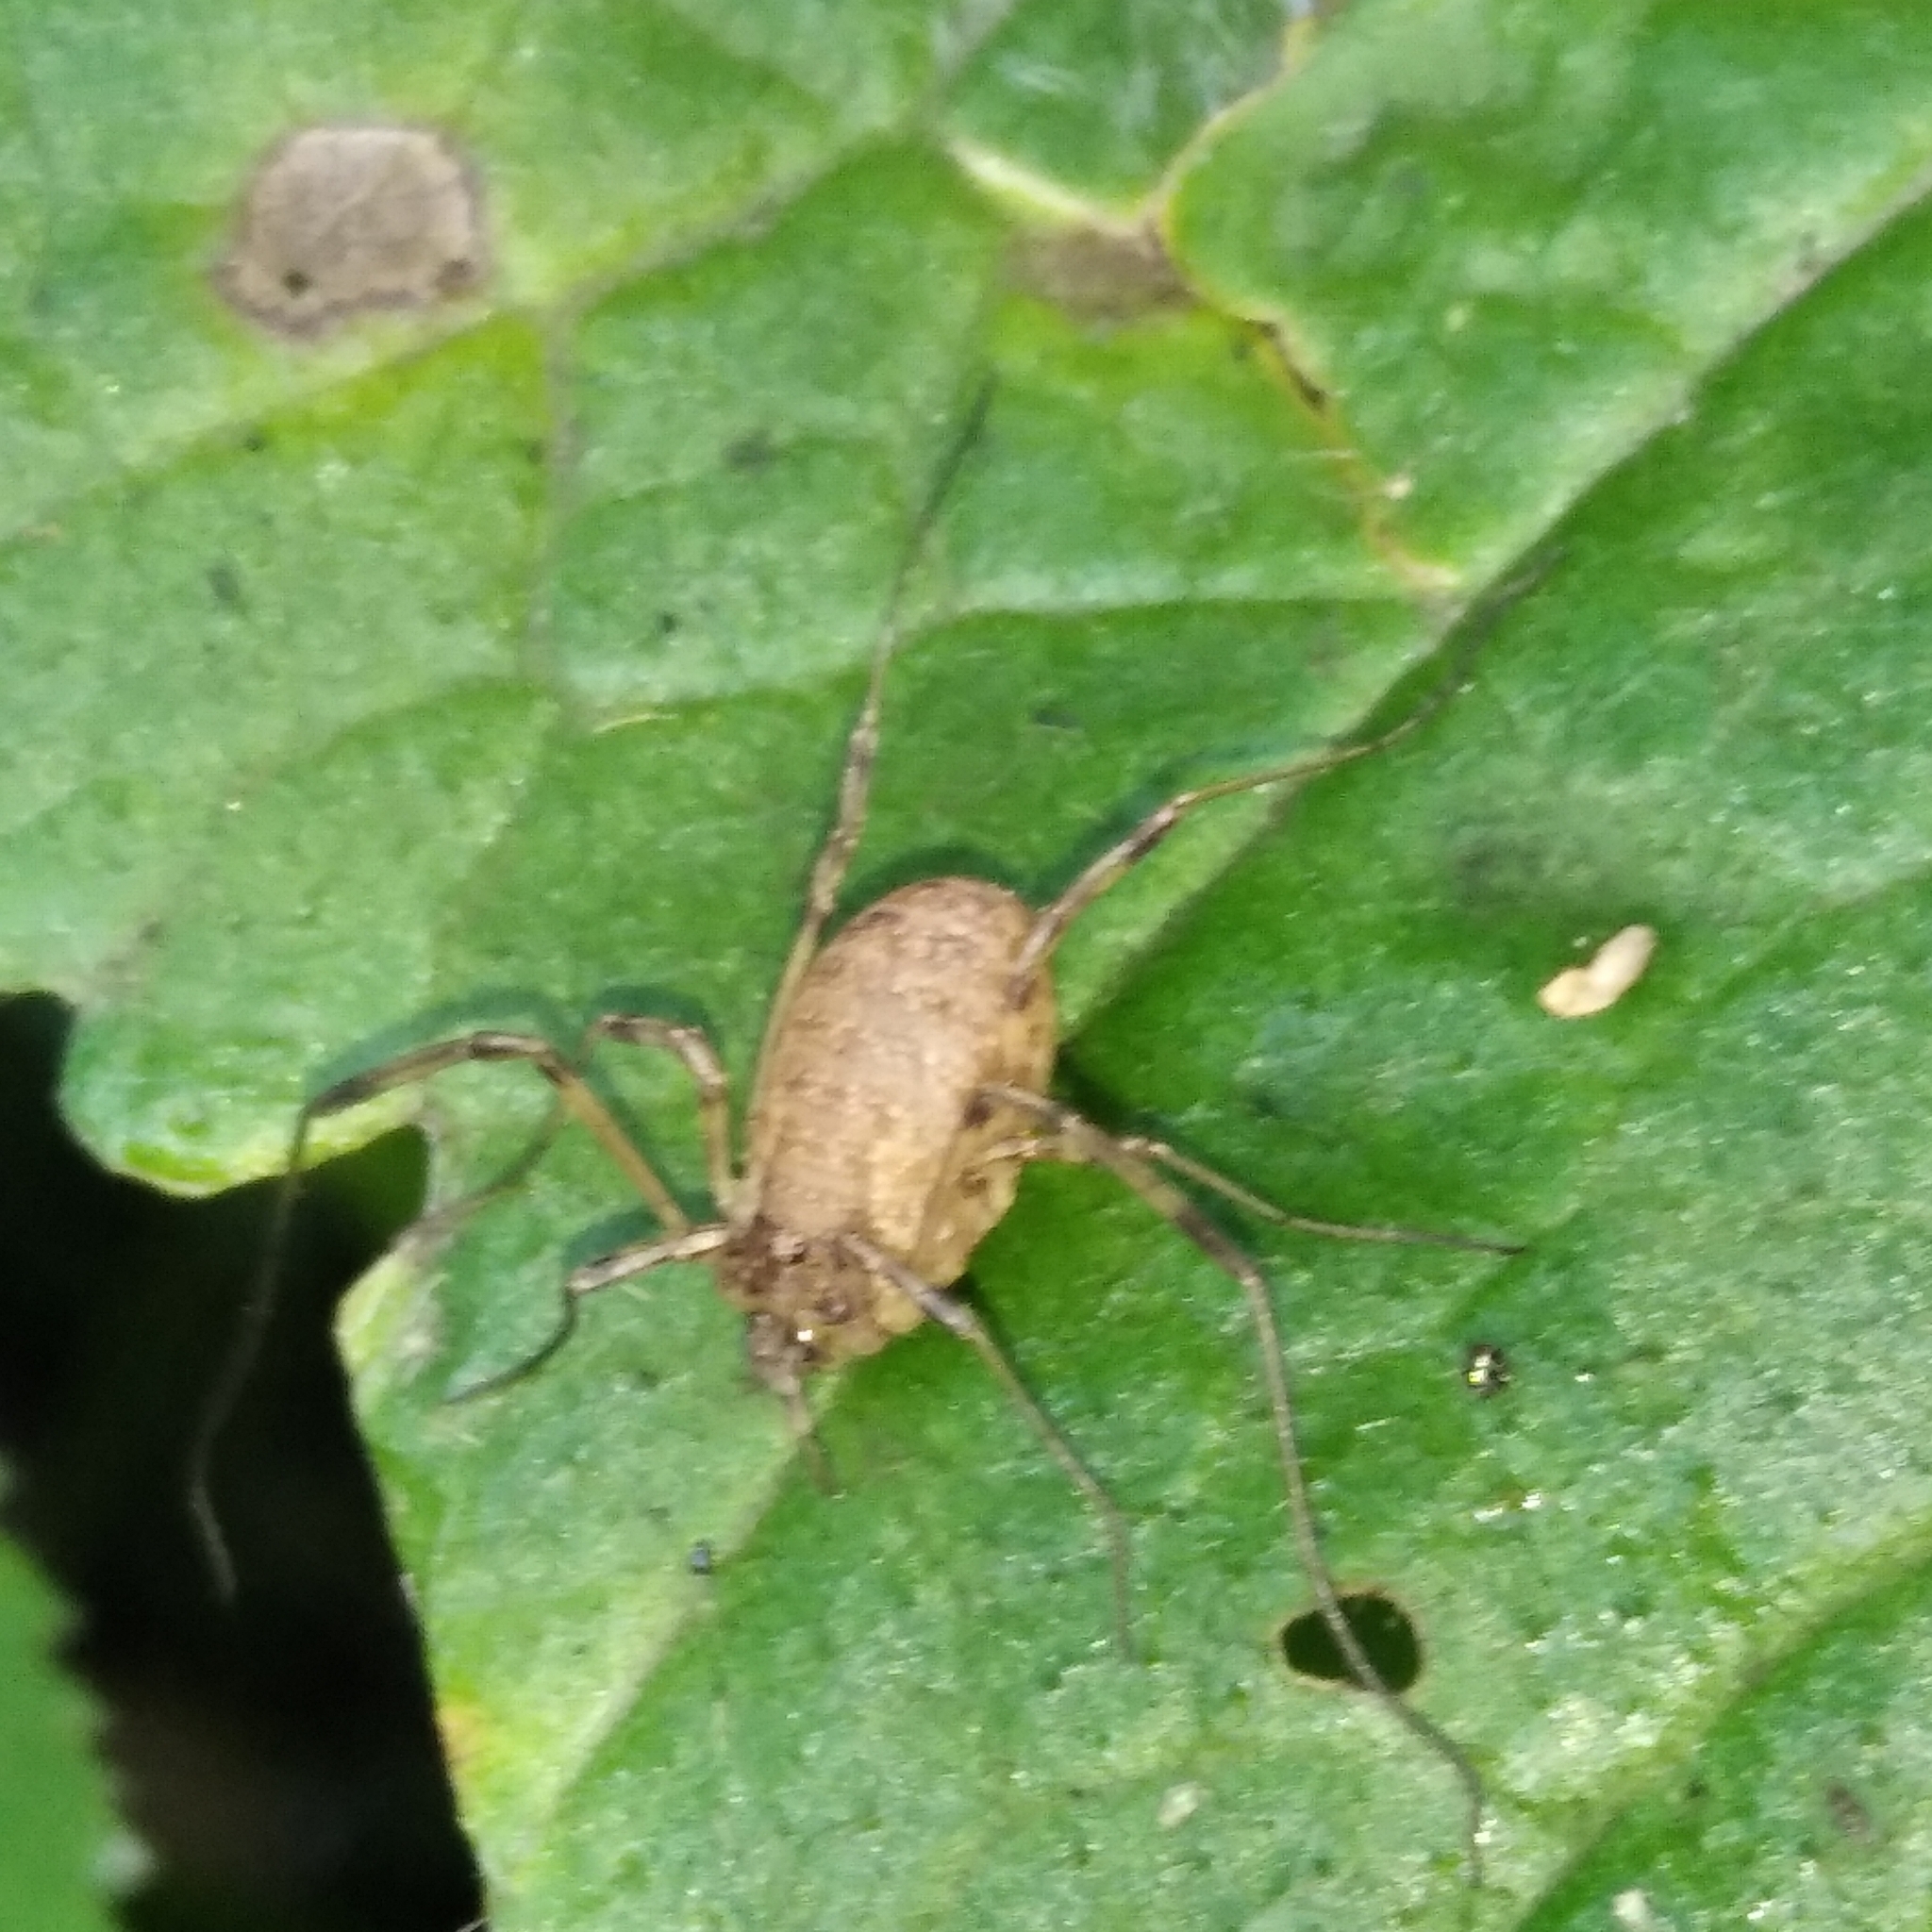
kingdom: Animalia
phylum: Arthropoda
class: Arachnida
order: Opiliones
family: Phalangiidae
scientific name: Phalangiidae
